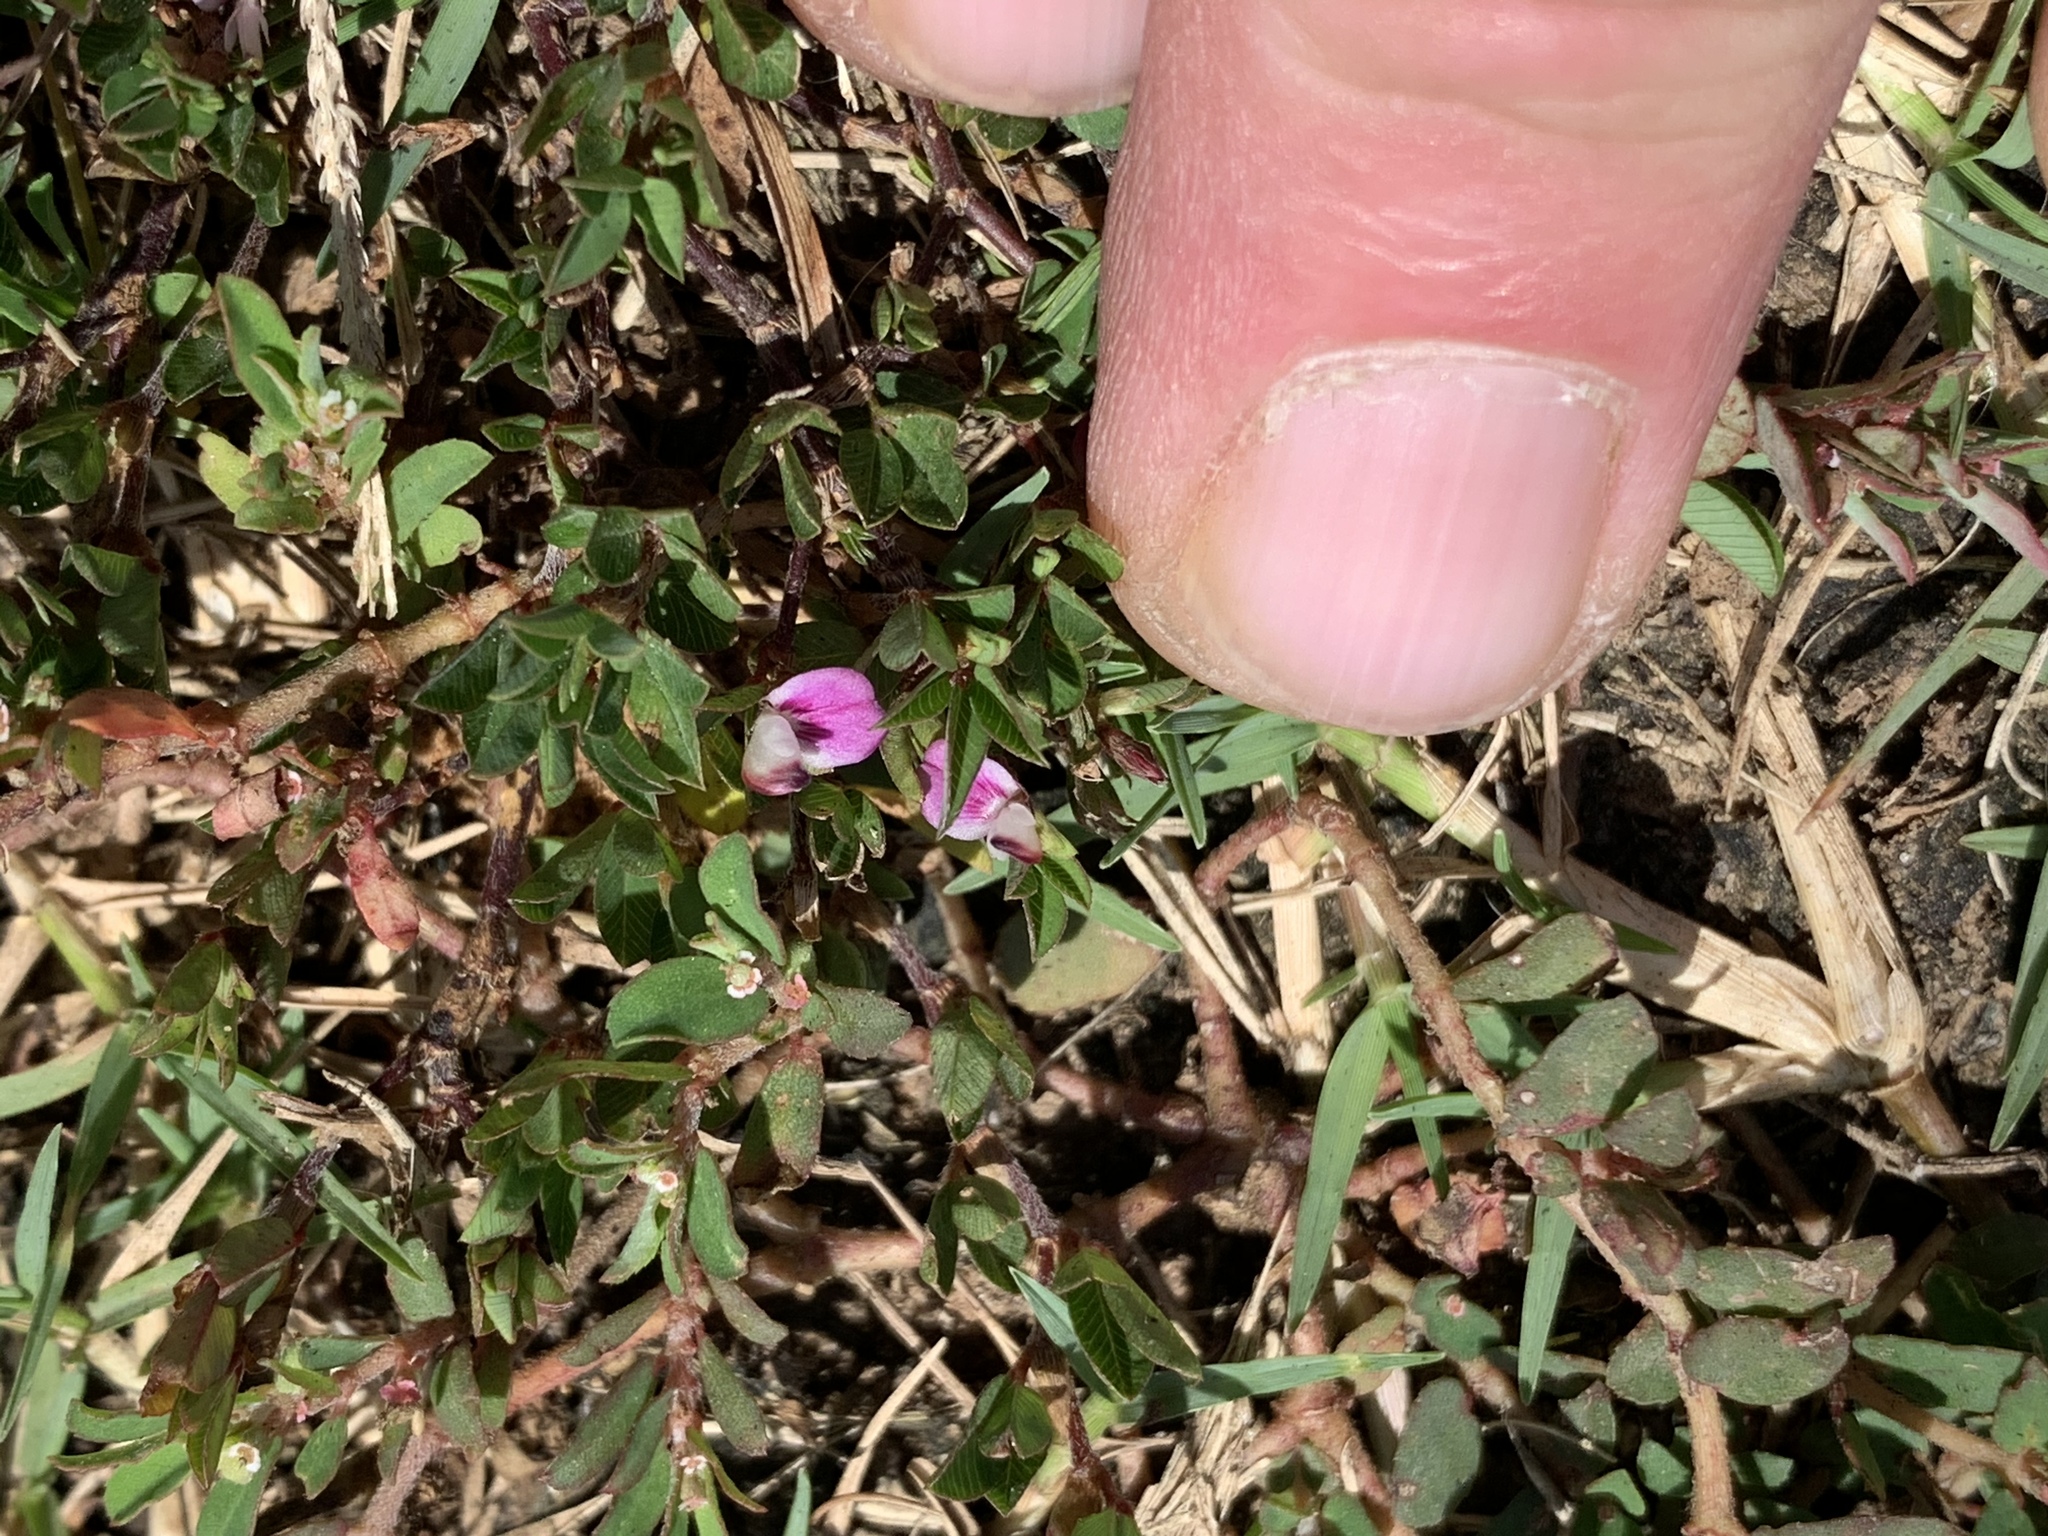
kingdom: Plantae
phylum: Tracheophyta
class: Magnoliopsida
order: Fabales
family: Fabaceae
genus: Kummerowia
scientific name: Kummerowia striata
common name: Japanese clover
